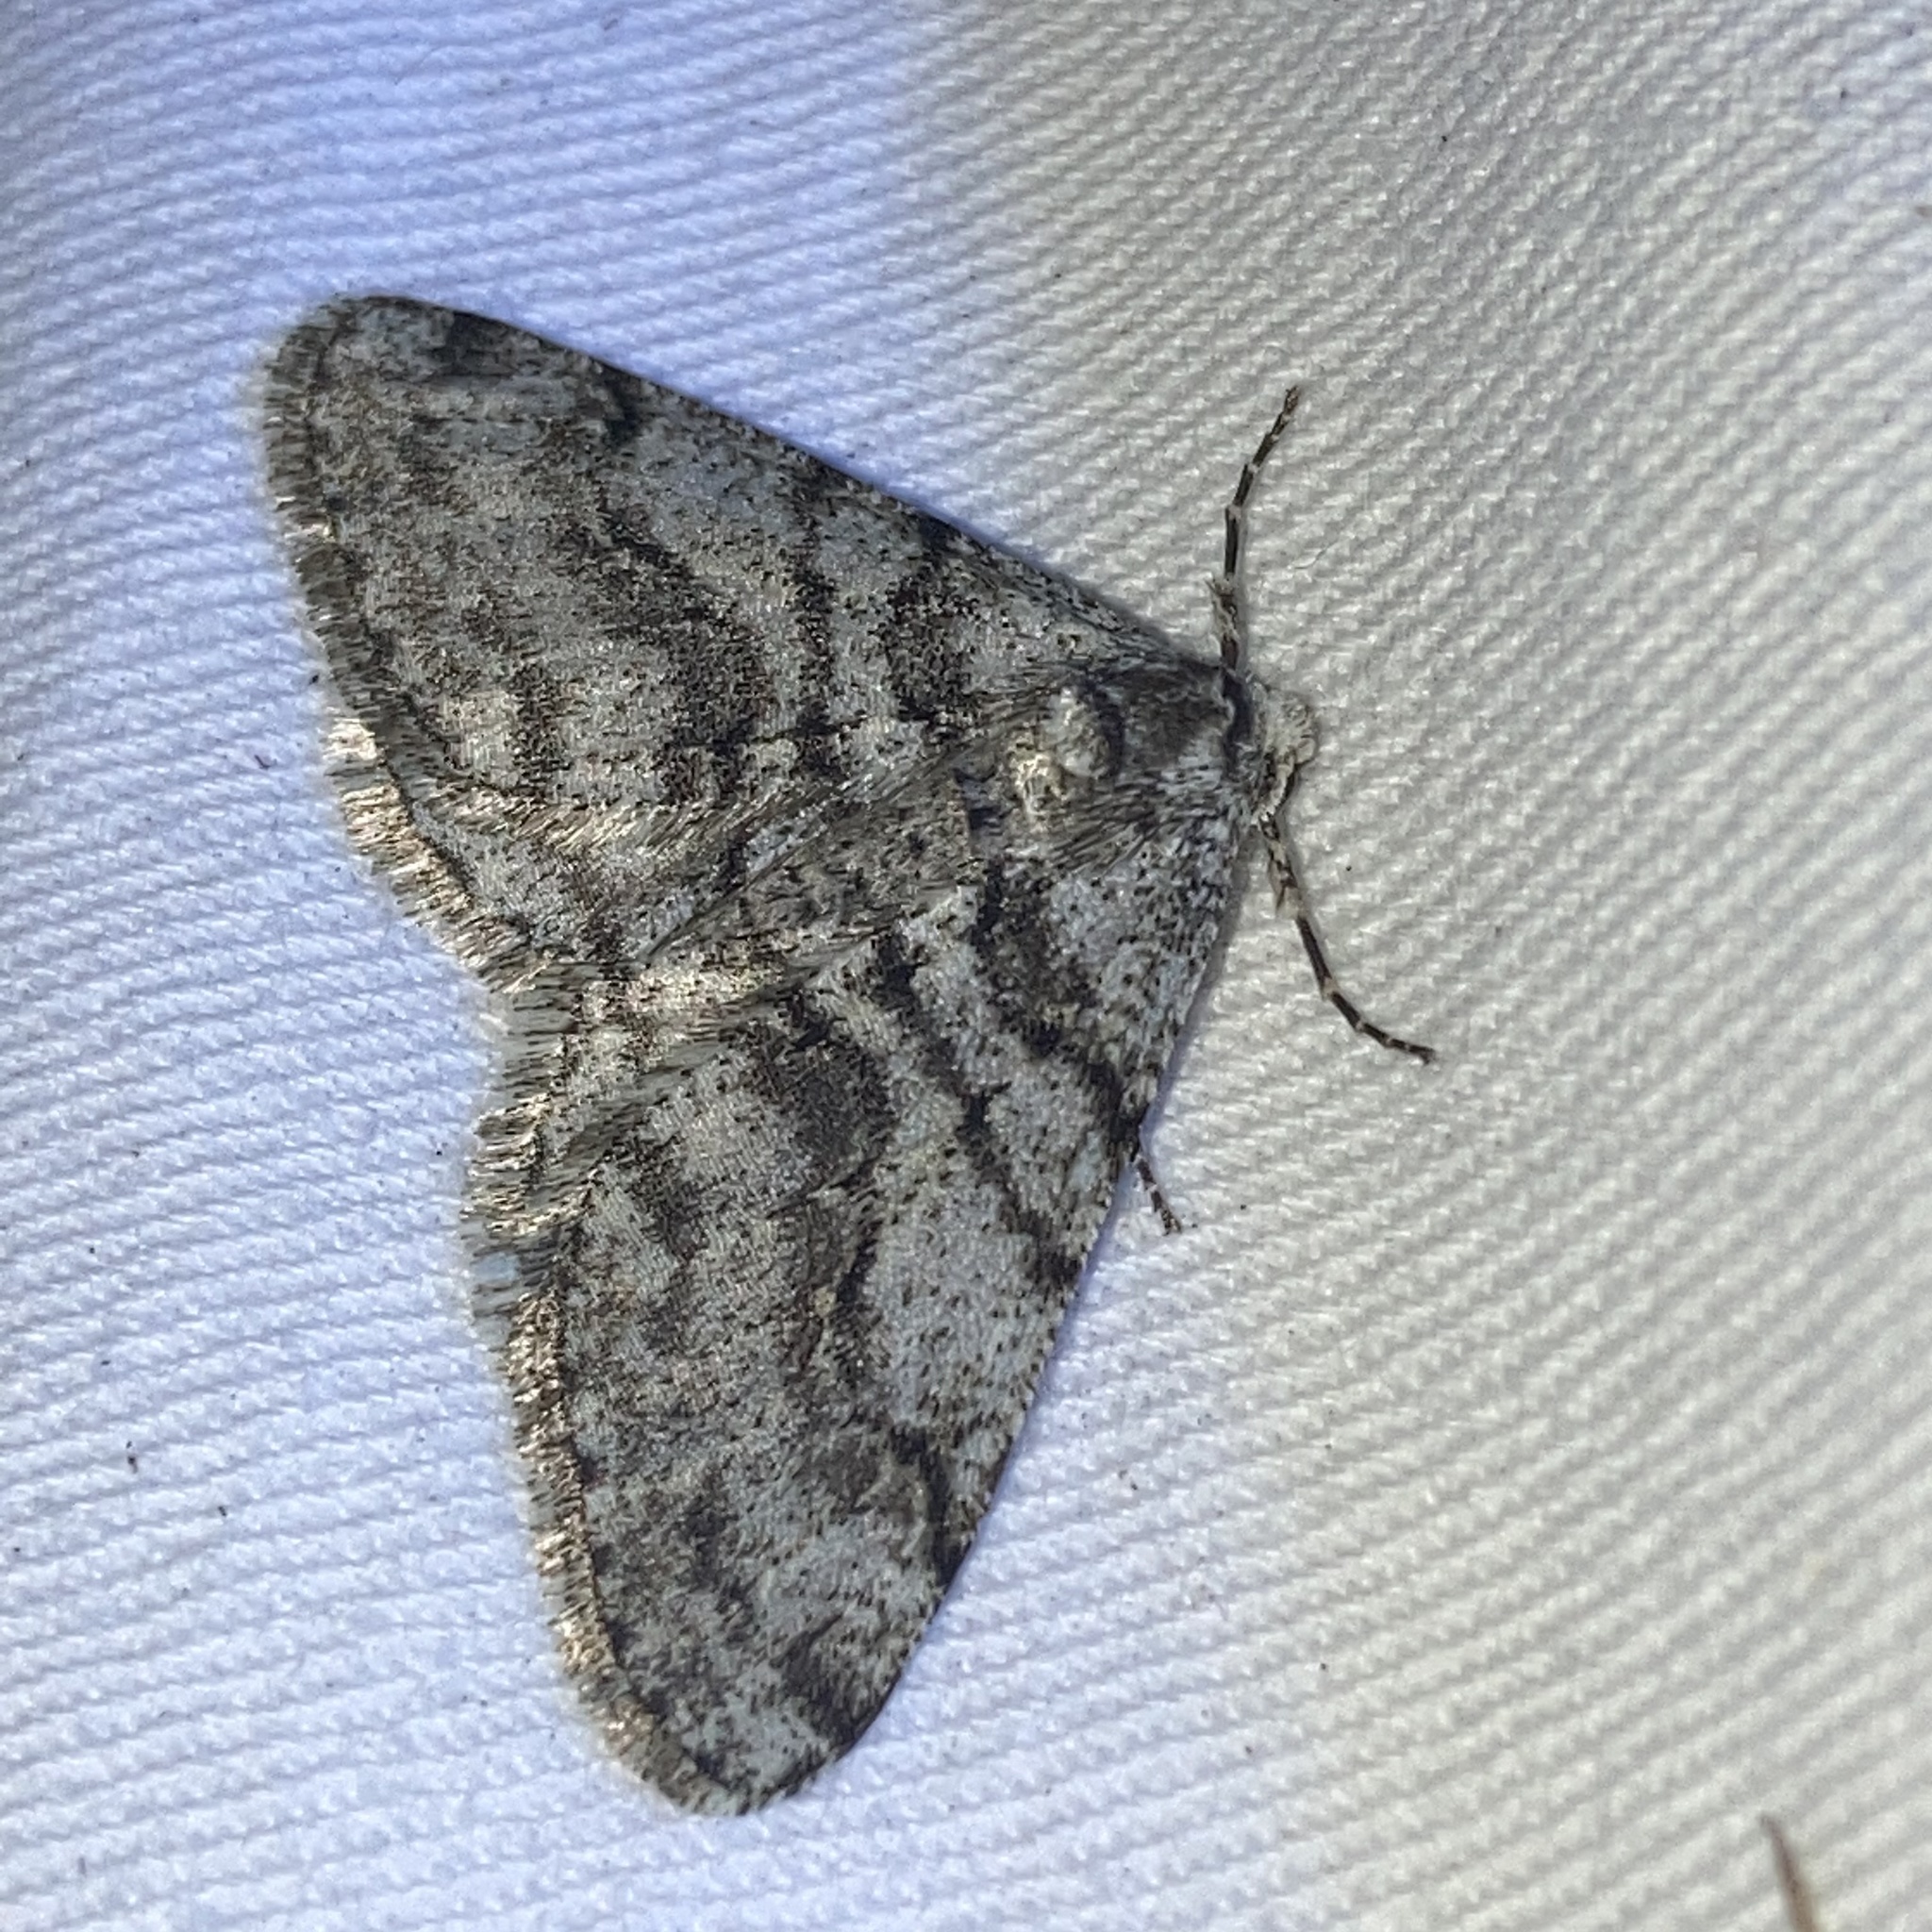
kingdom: Animalia
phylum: Arthropoda
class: Insecta
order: Lepidoptera
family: Geometridae
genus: Phigalia
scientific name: Phigalia titea
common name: Spiny looper
